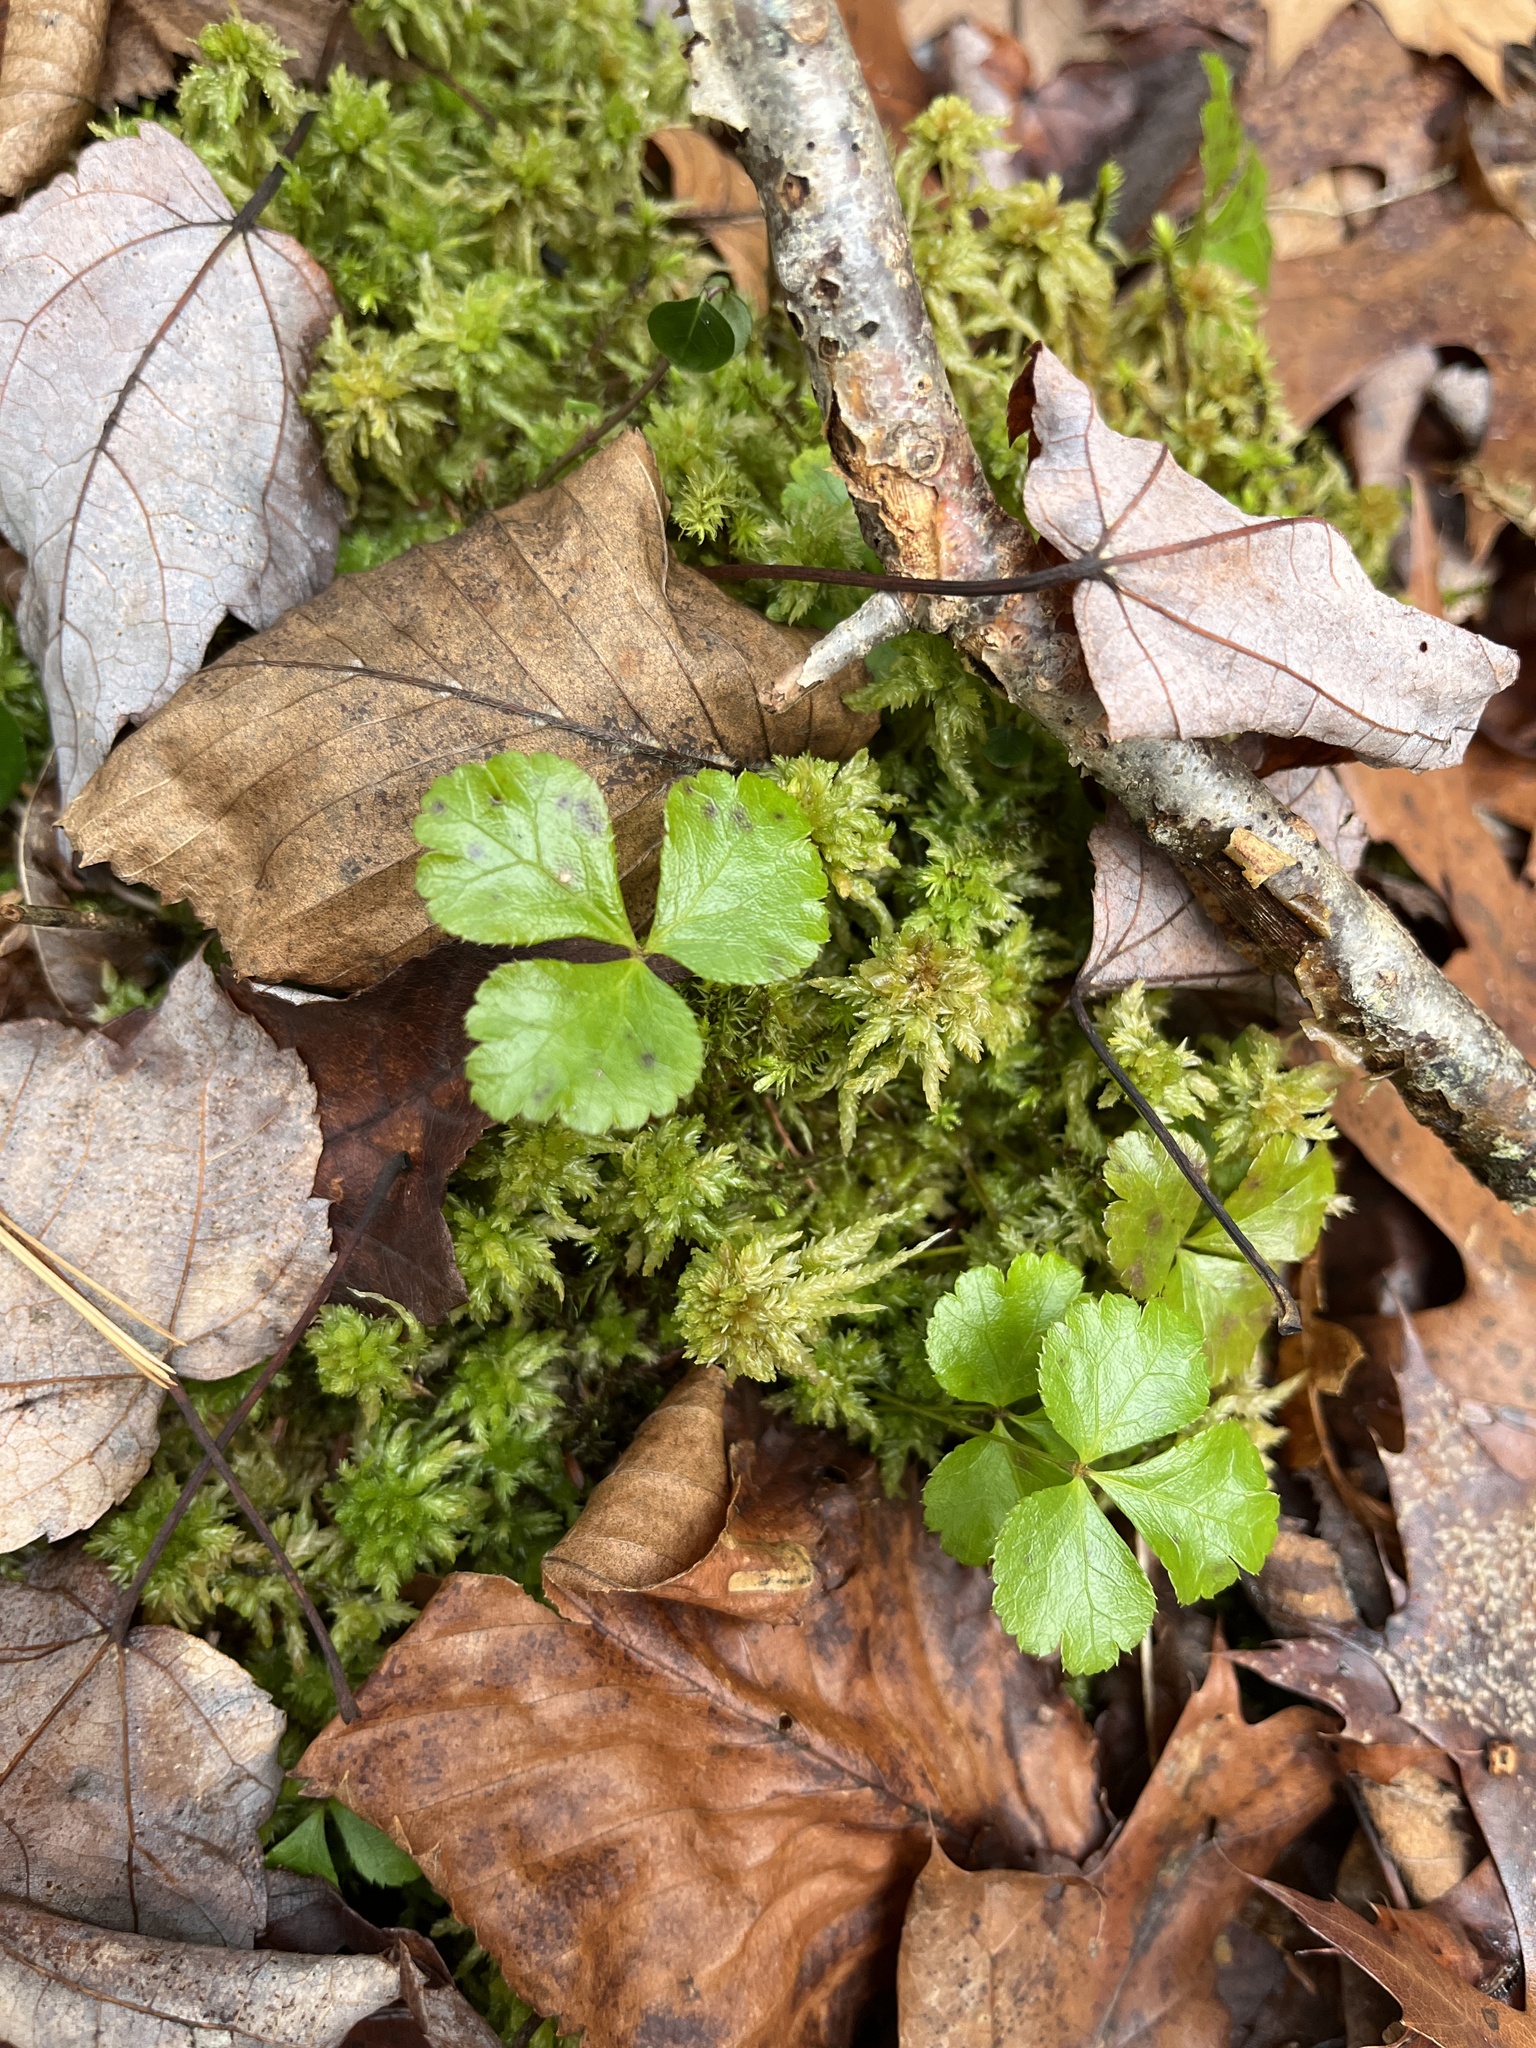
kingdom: Plantae
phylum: Tracheophyta
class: Magnoliopsida
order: Ranunculales
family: Ranunculaceae
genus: Coptis
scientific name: Coptis trifolia
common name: Canker-root
